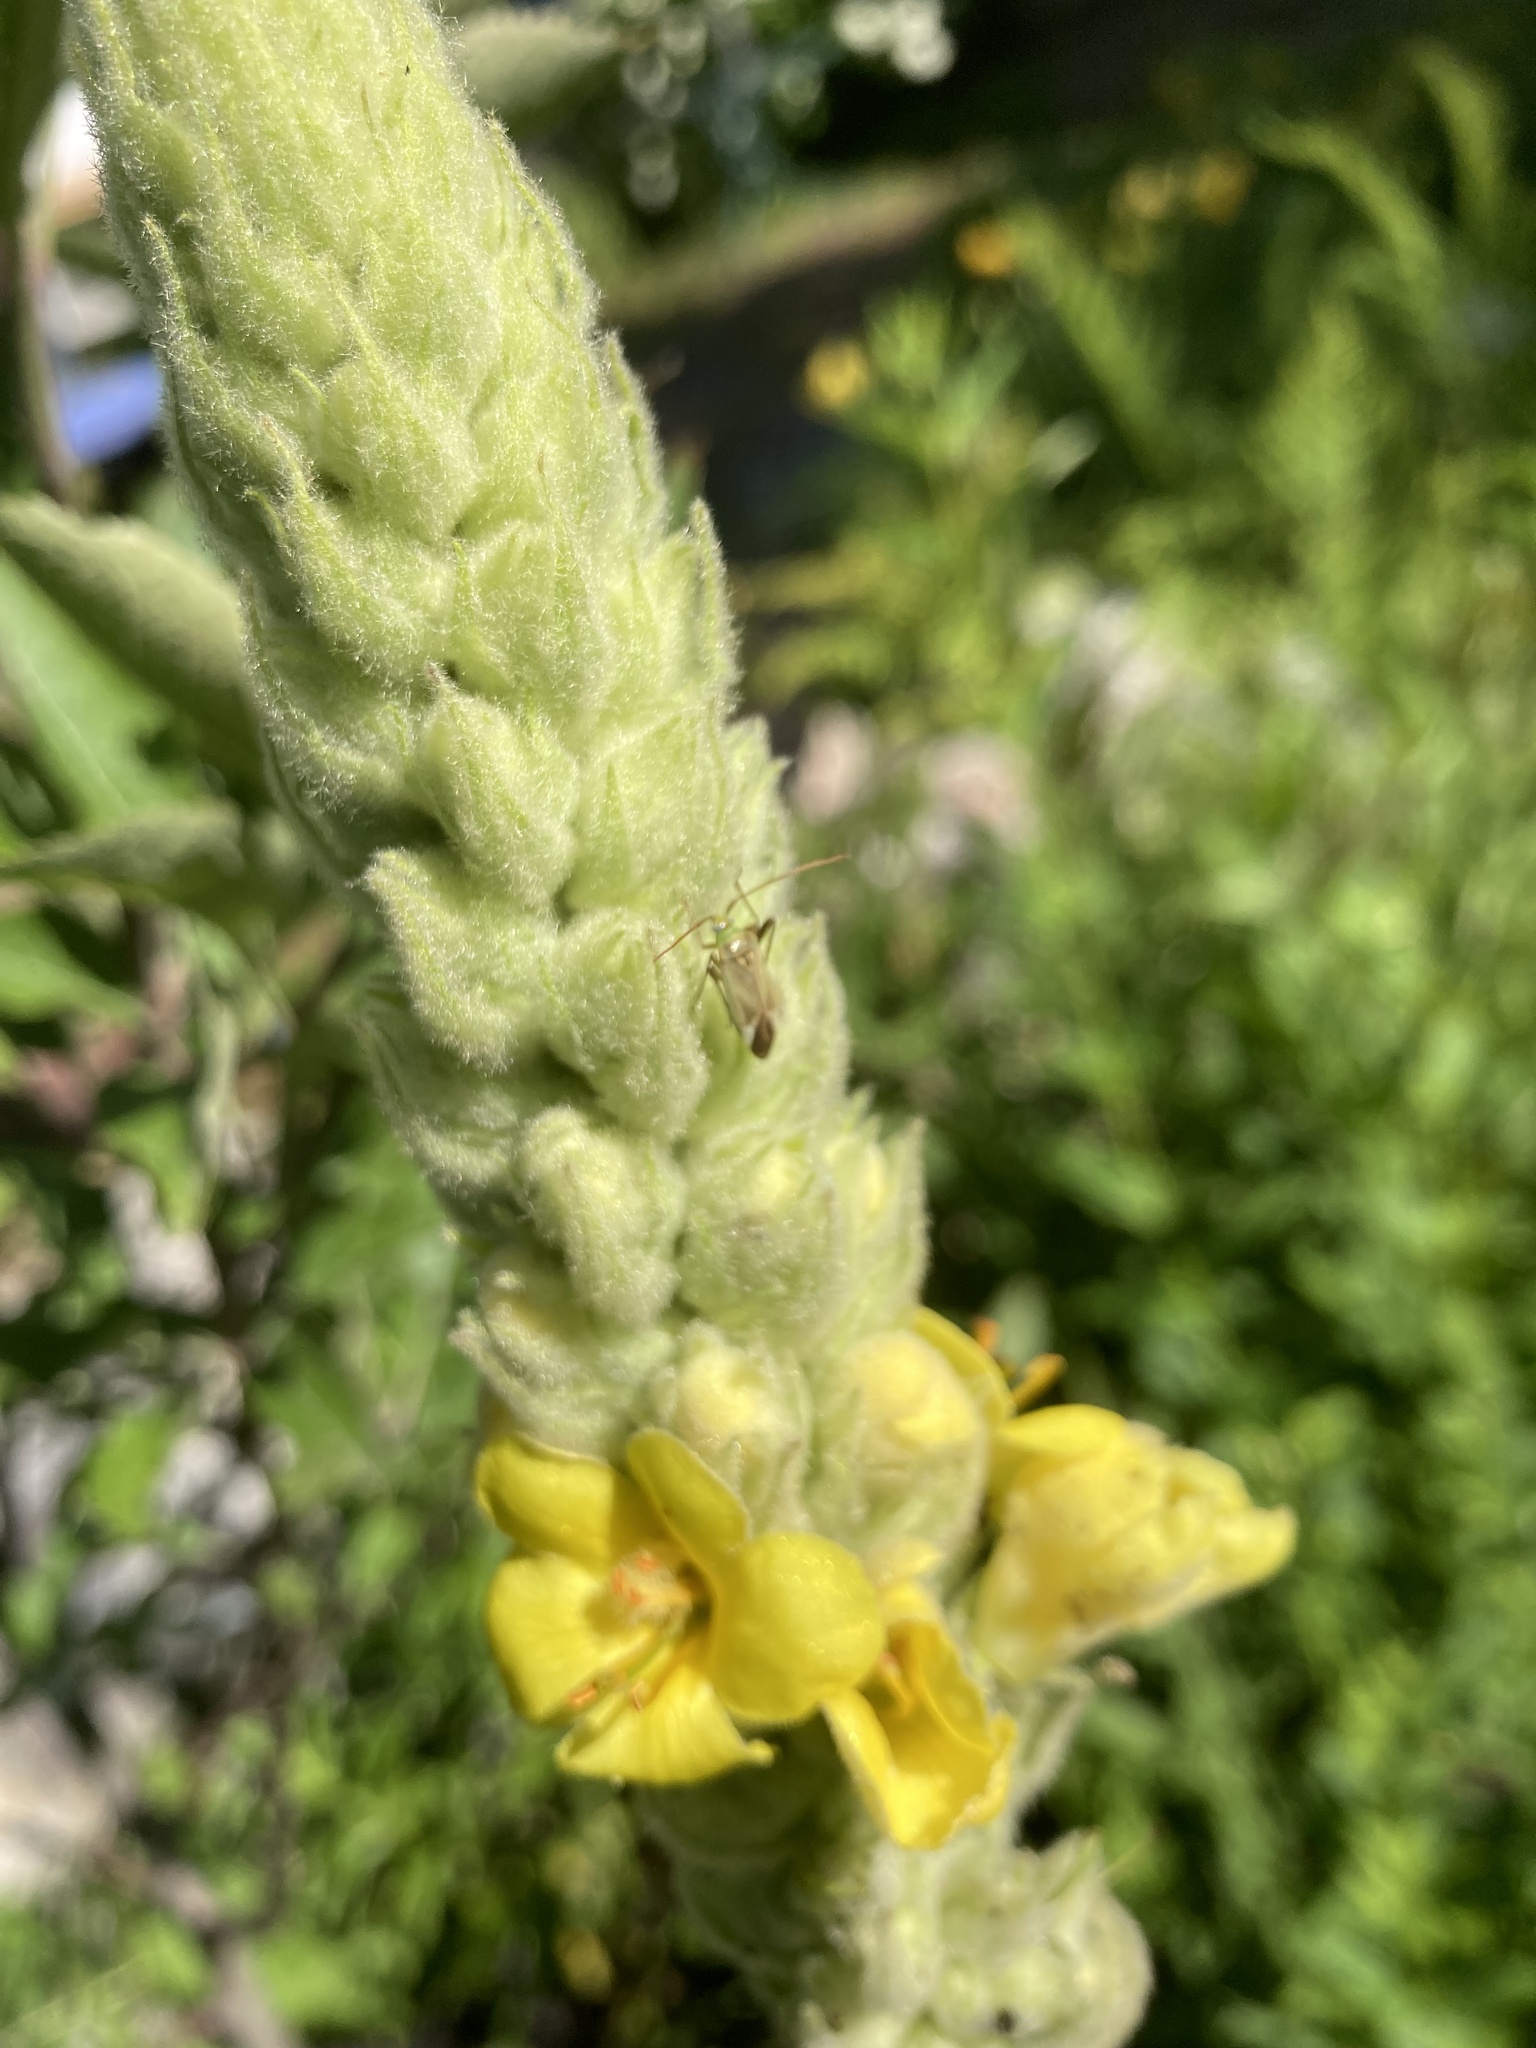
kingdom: Animalia
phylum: Arthropoda
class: Insecta
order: Hemiptera
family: Miridae
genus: Adelphocoris
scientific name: Adelphocoris lineolatus
